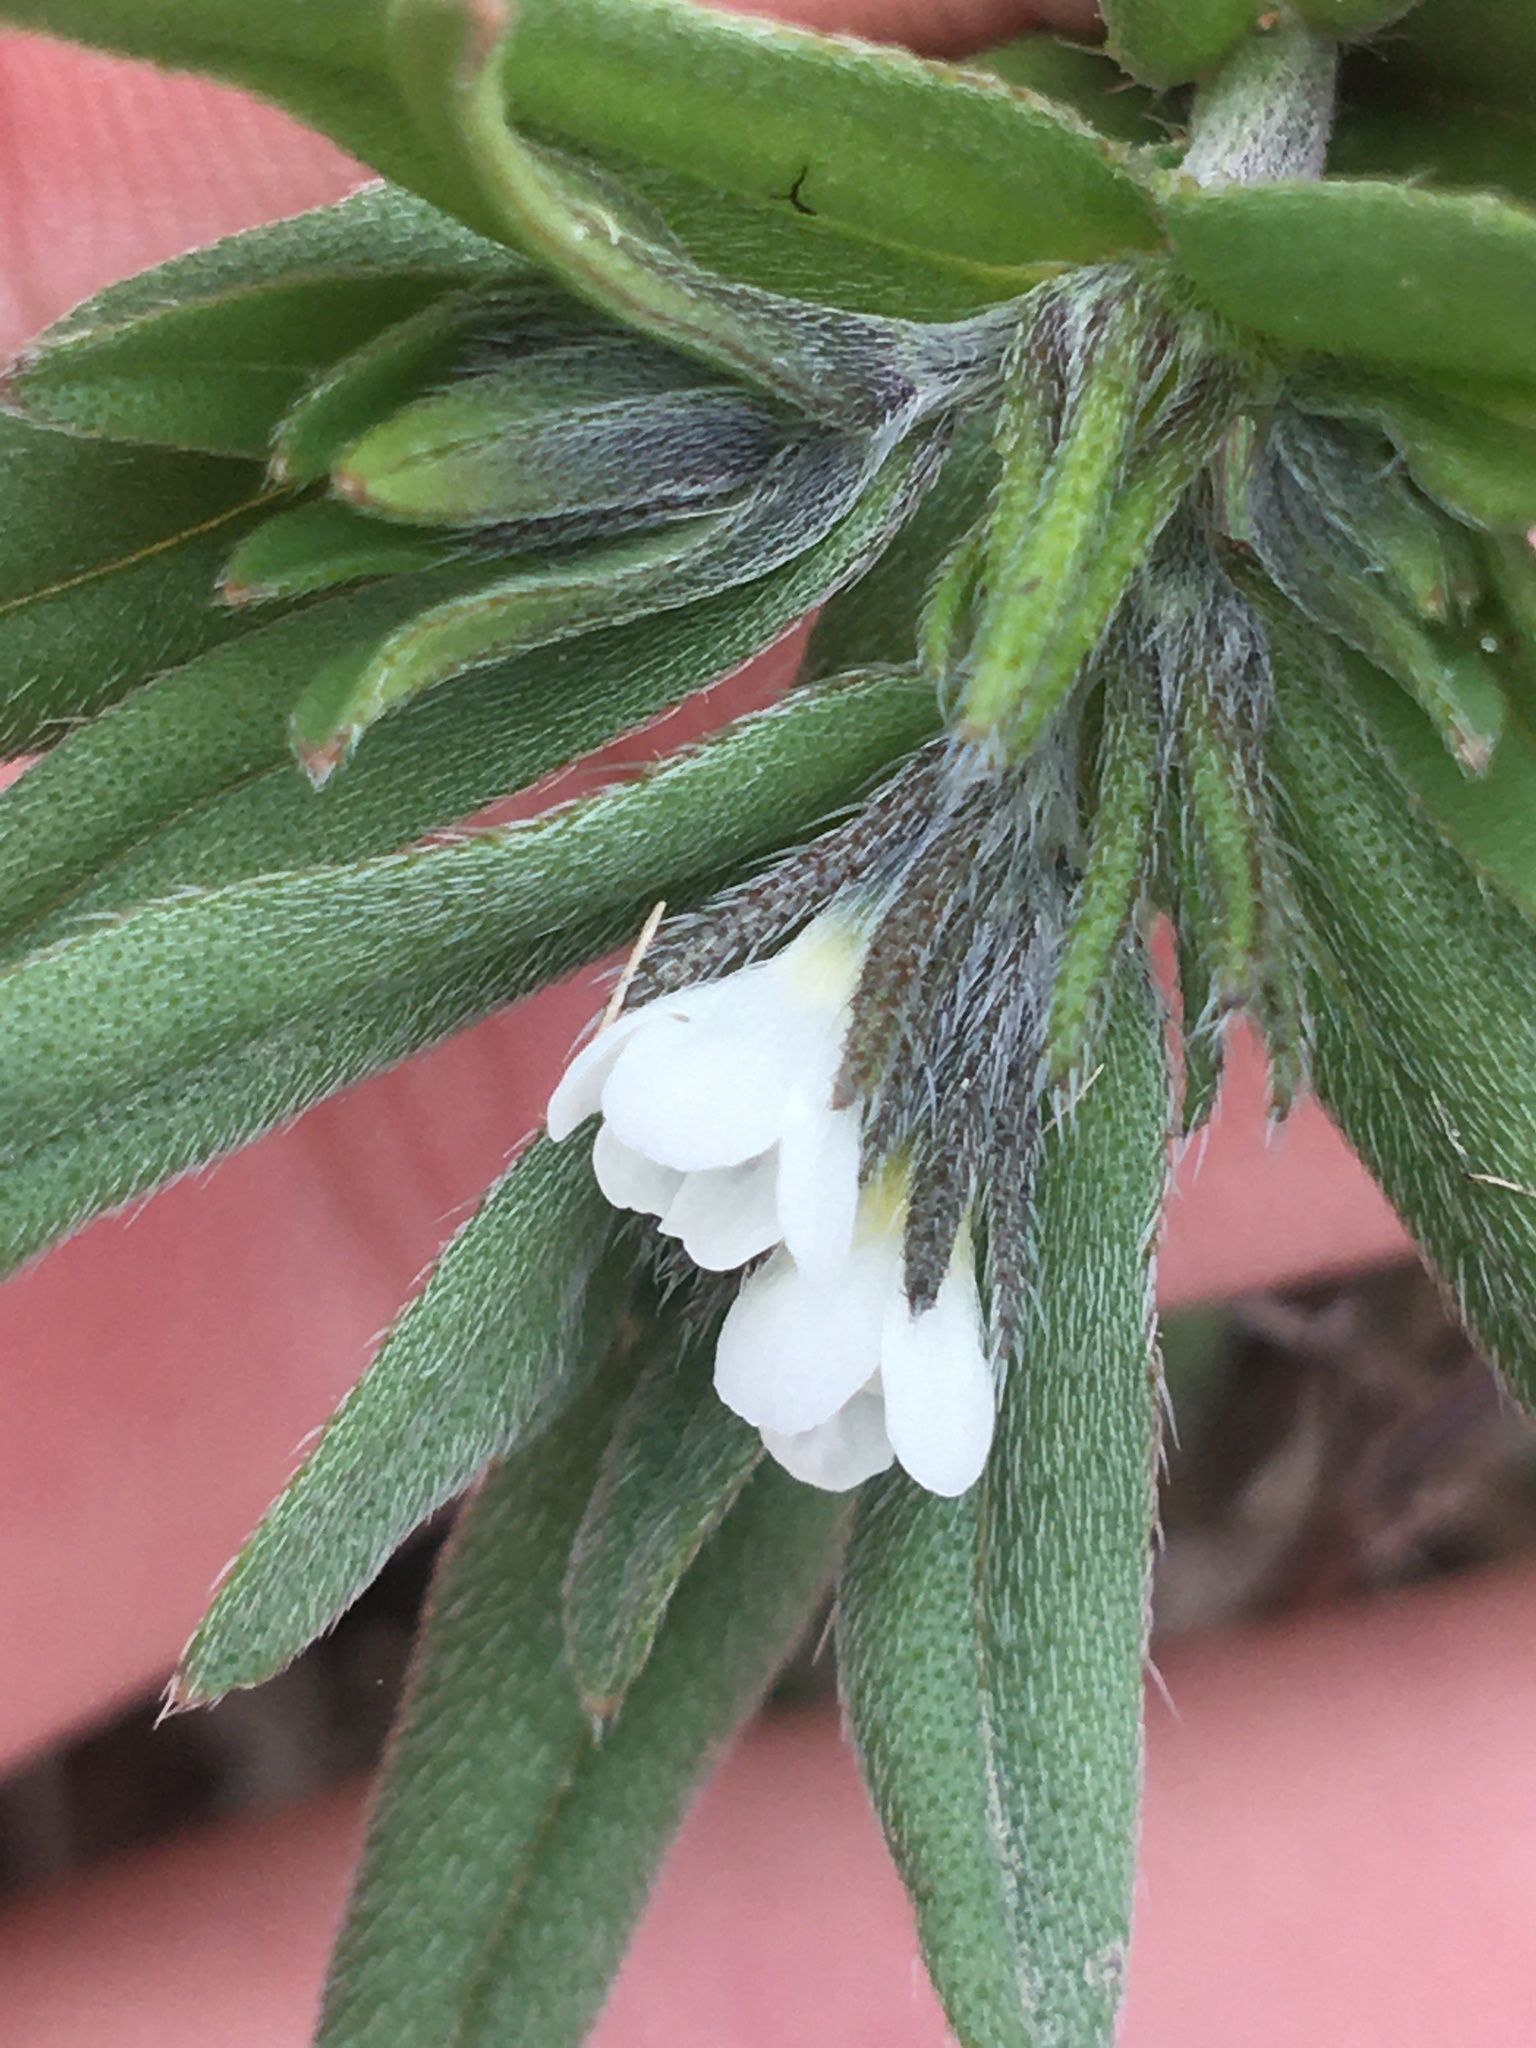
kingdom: Plantae
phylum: Tracheophyta
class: Magnoliopsida
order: Boraginales
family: Boraginaceae
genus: Buglossoides
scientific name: Buglossoides arvensis
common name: Corn gromwell
